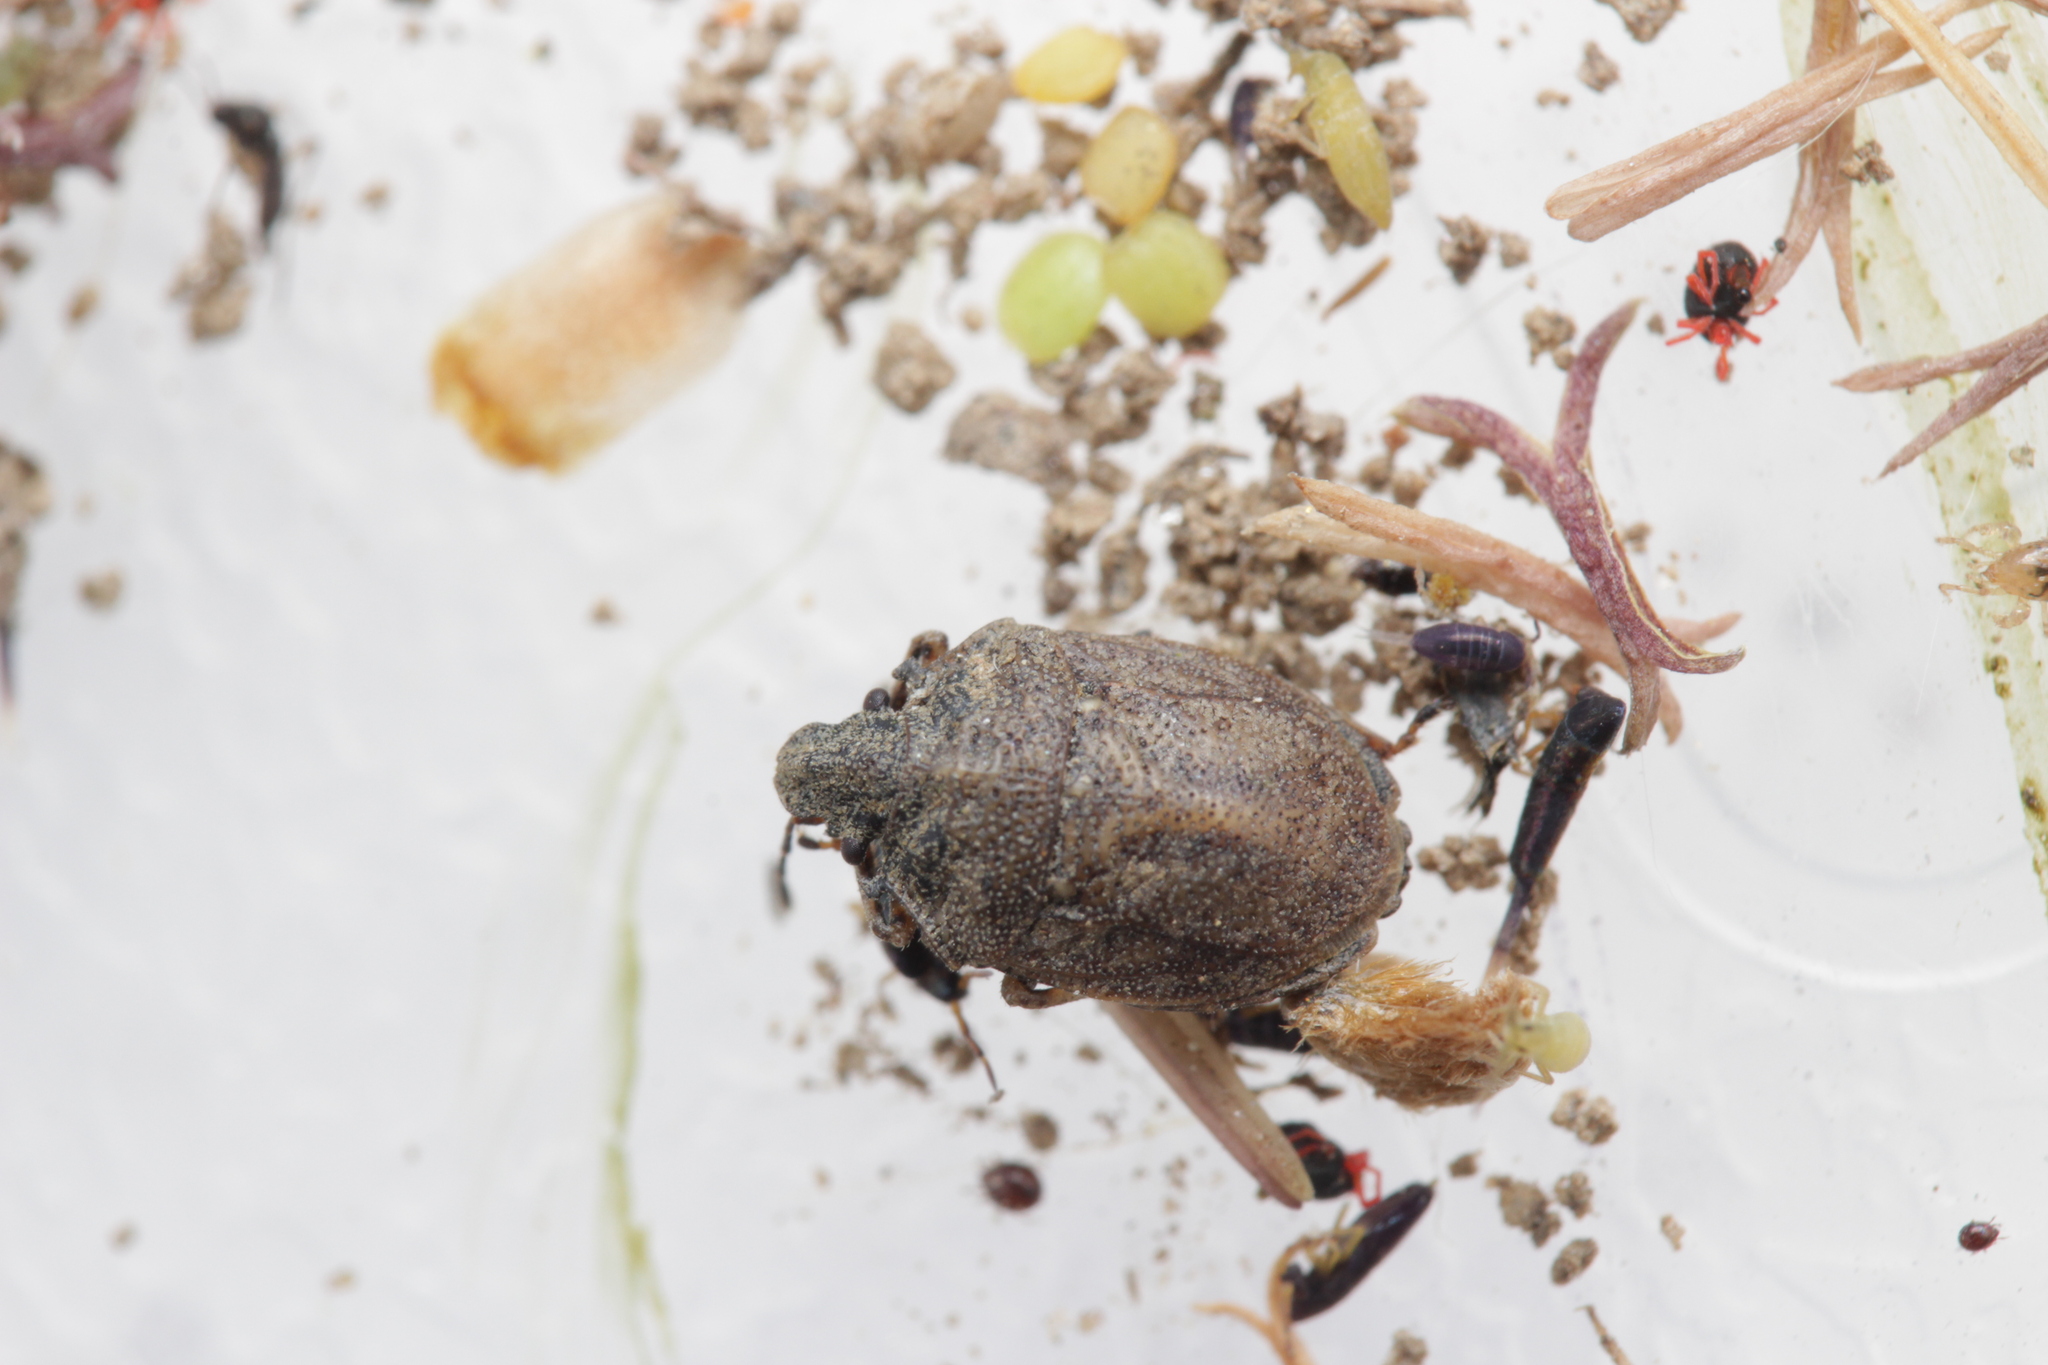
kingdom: Animalia
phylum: Arthropoda
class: Insecta
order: Hemiptera
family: Pentatomidae
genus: Podops
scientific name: Podops inunctus
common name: Turtle bug
